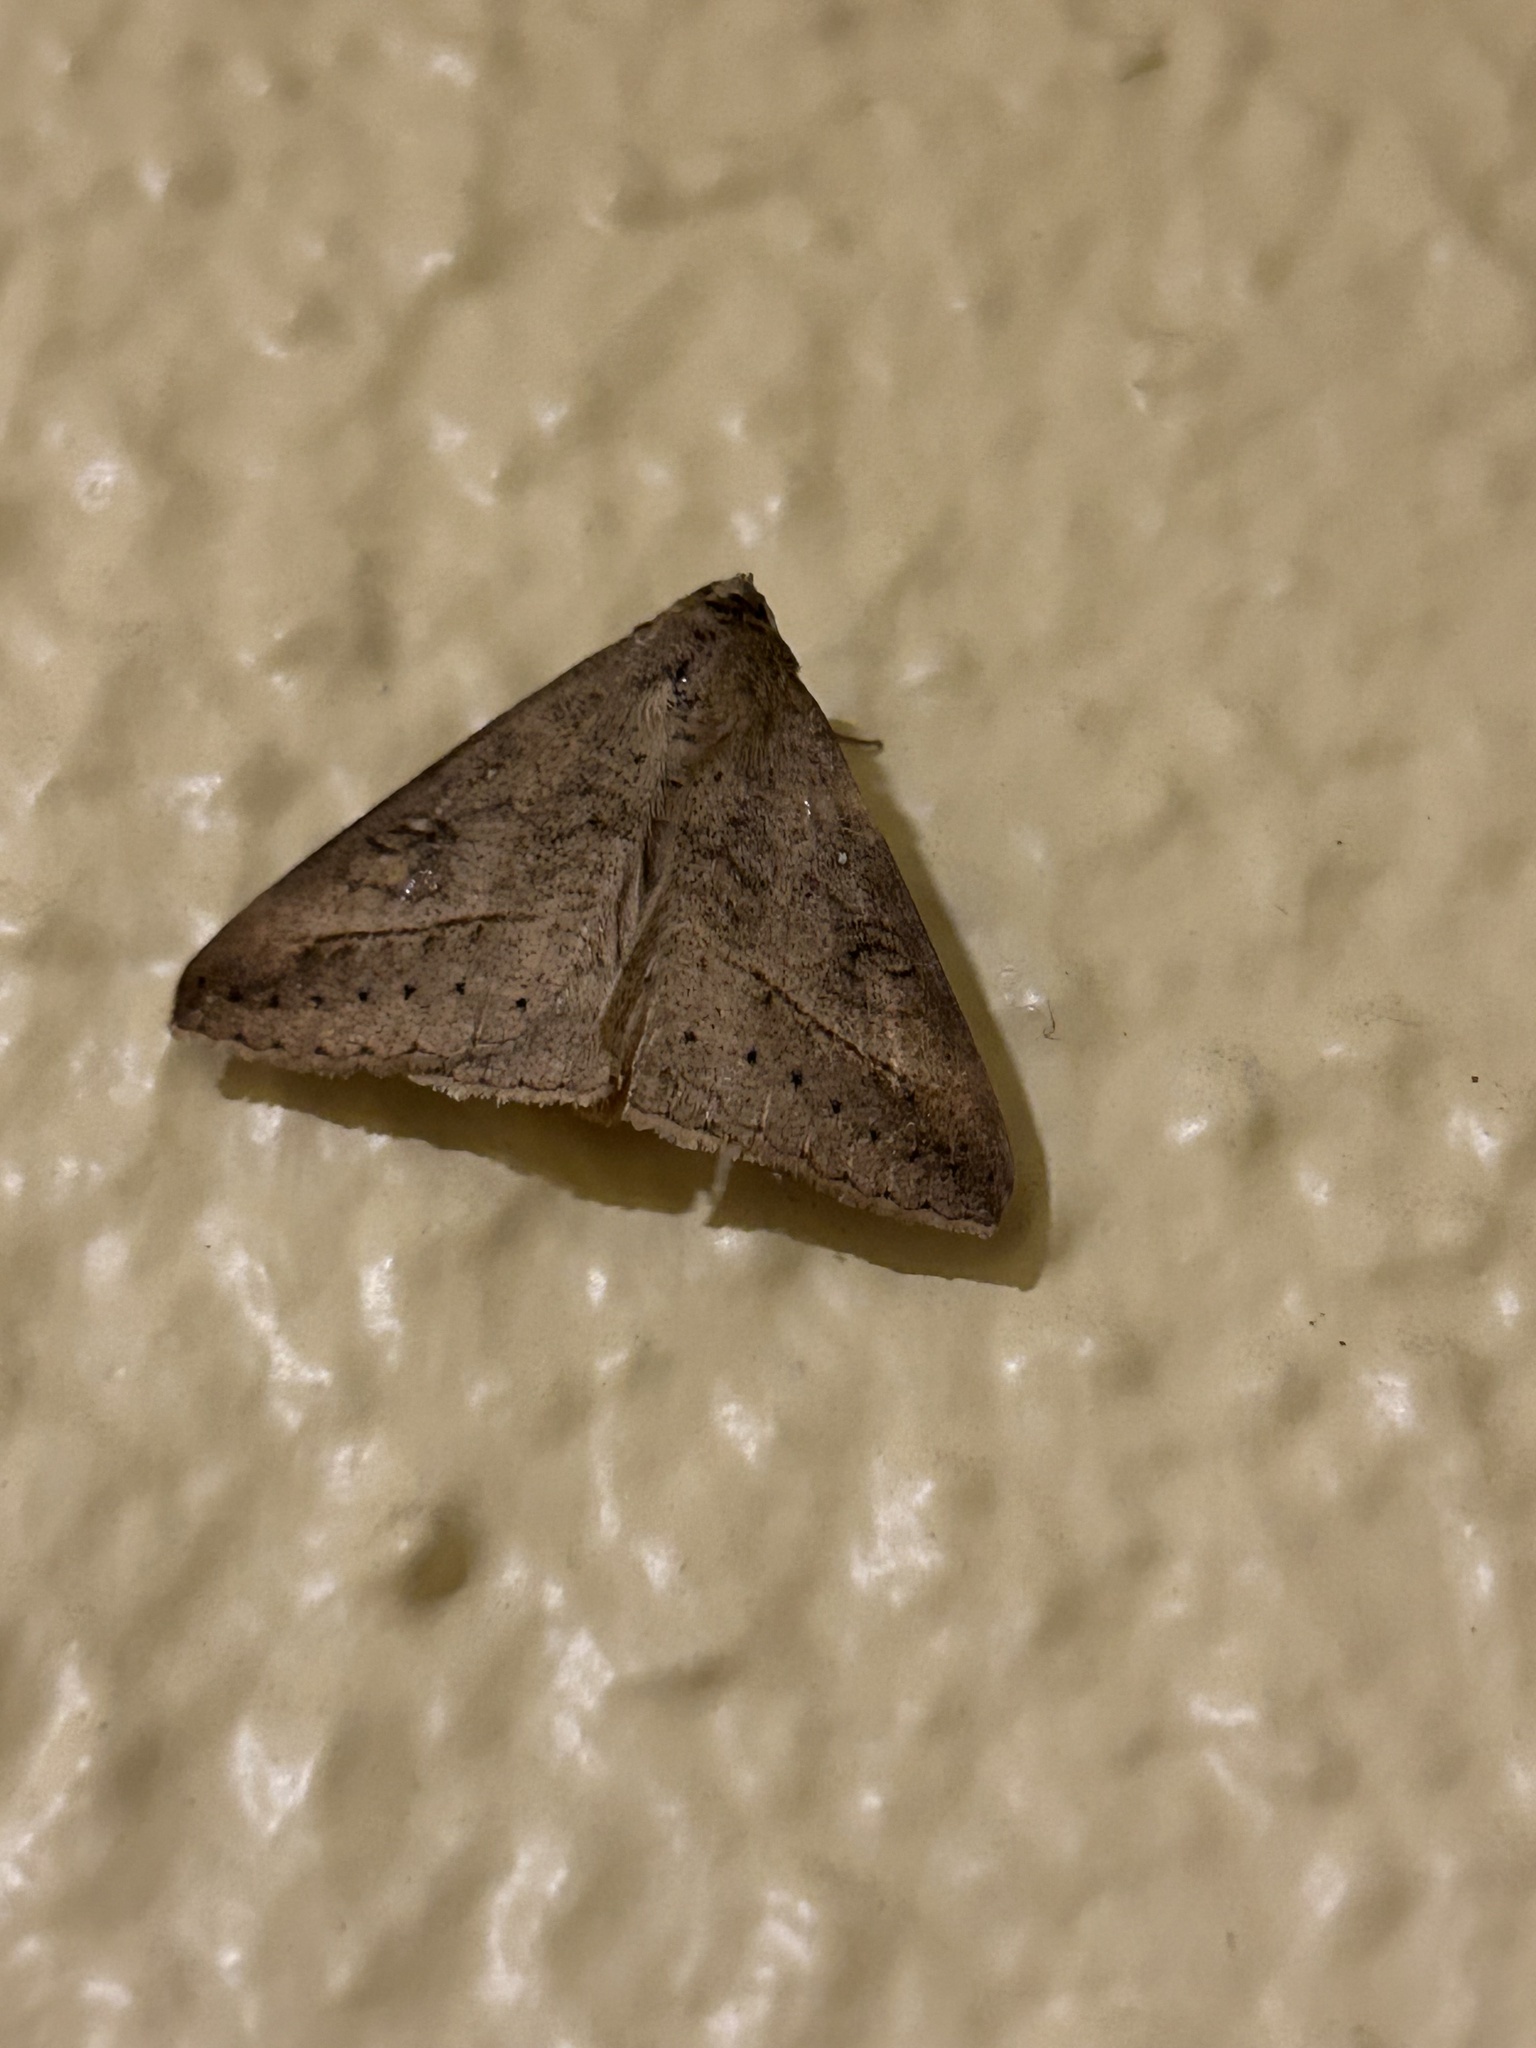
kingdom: Animalia
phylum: Arthropoda
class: Insecta
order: Lepidoptera
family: Erebidae
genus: Mocis
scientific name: Mocis latipes
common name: Striped grass looper
